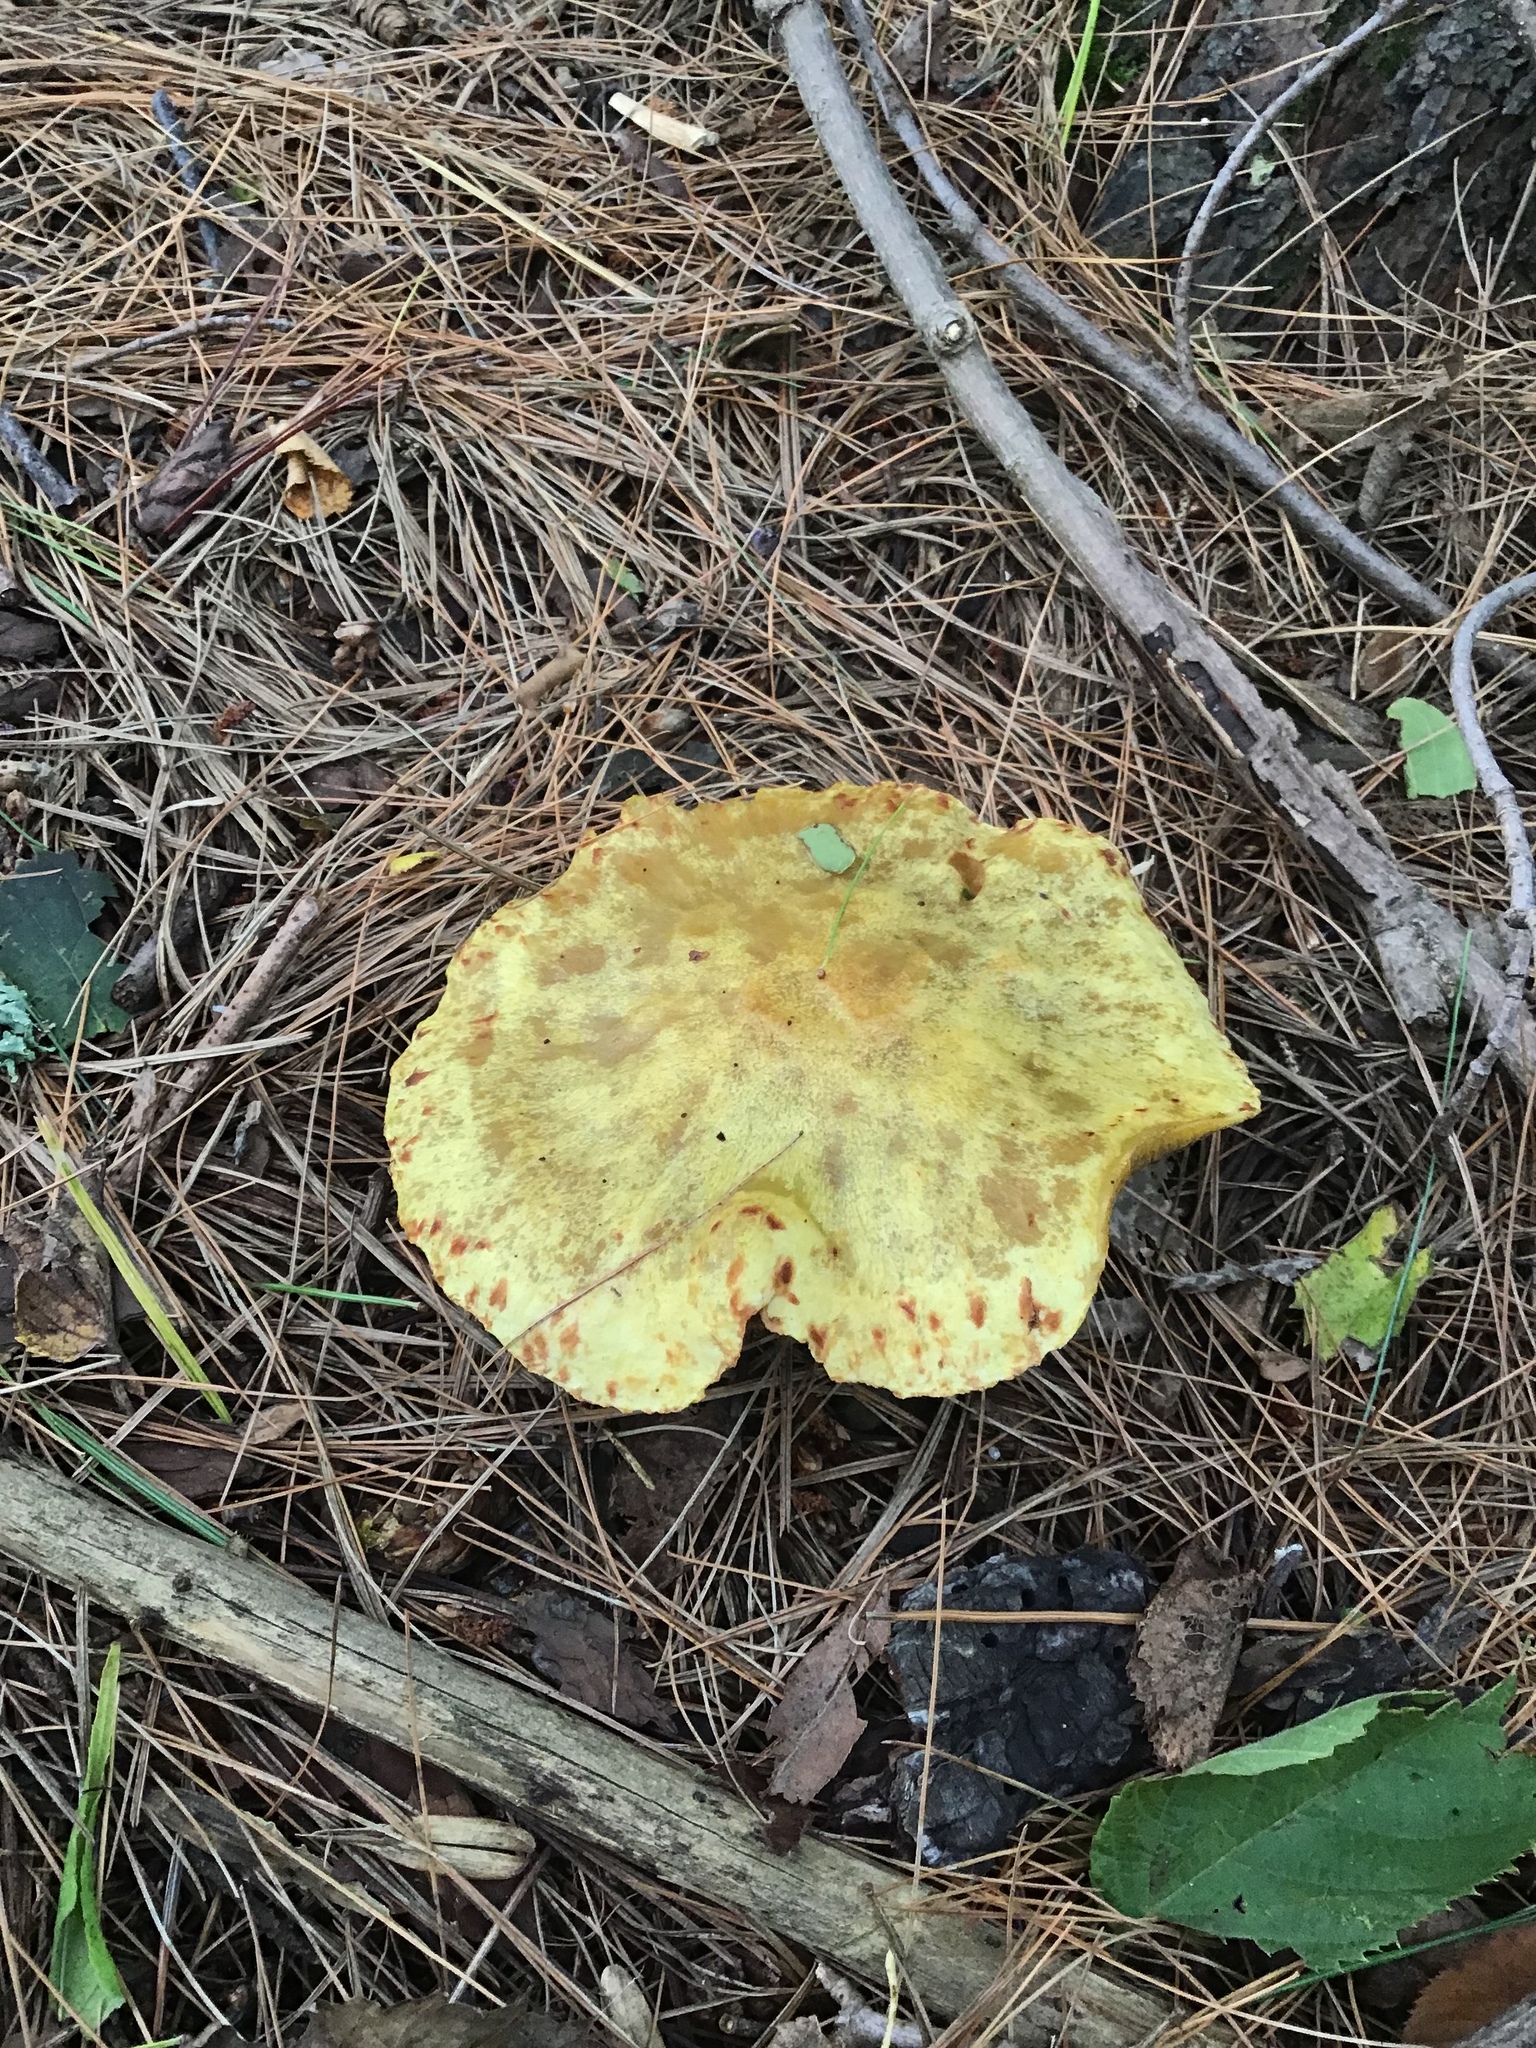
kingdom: Fungi
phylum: Basidiomycota
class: Agaricomycetes
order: Boletales
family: Suillaceae
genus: Suillus
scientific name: Suillus americanus
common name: Chicken fat mushroom
